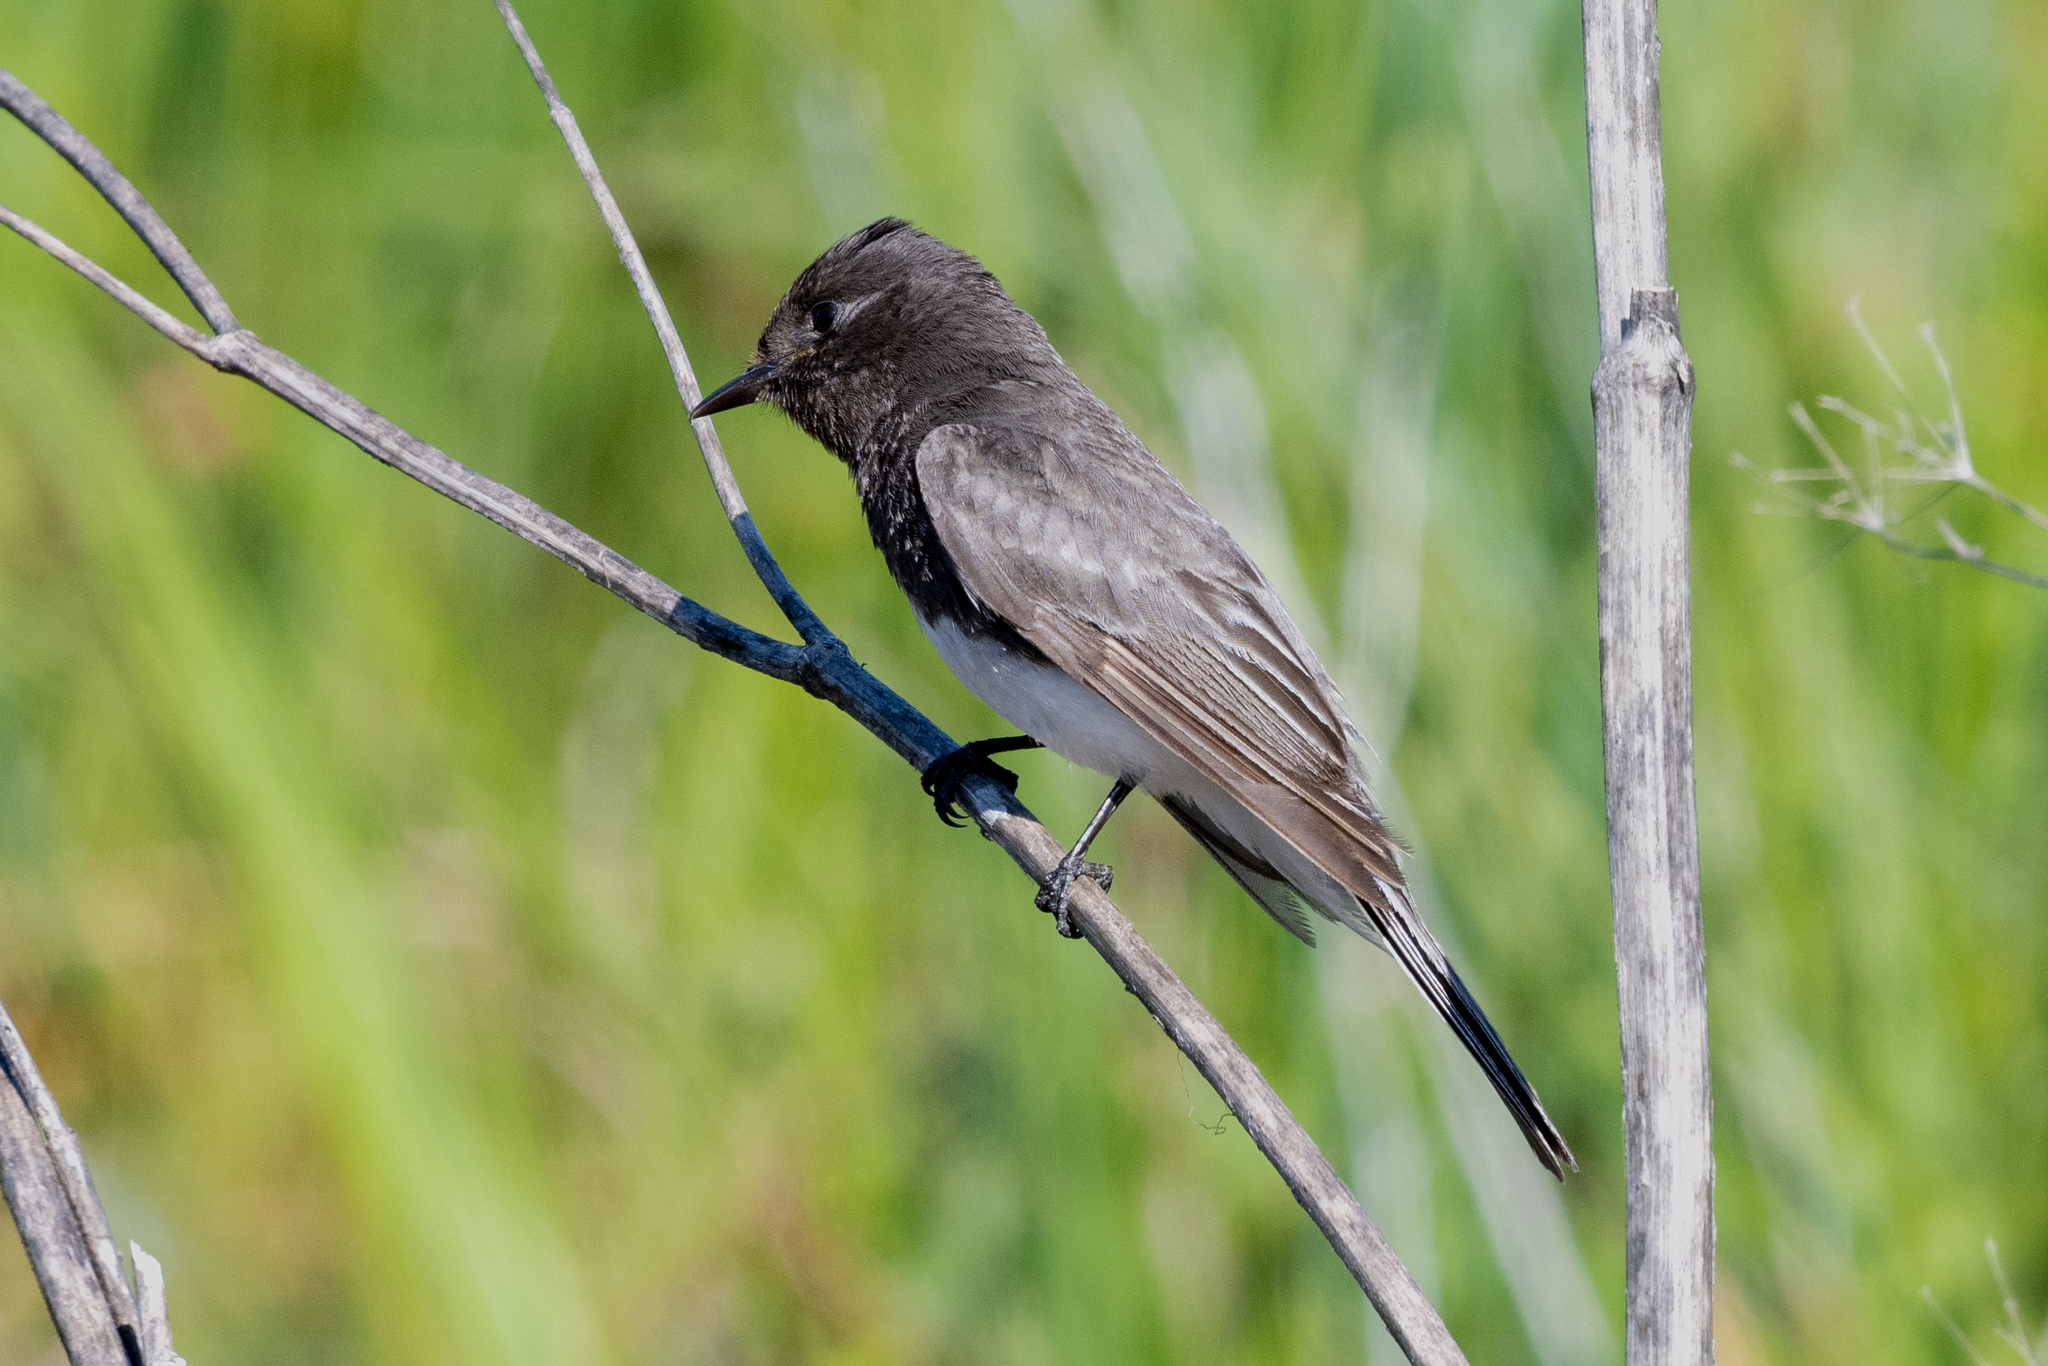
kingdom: Animalia
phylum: Chordata
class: Aves
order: Passeriformes
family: Tyrannidae
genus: Sayornis
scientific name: Sayornis nigricans
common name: Black phoebe
